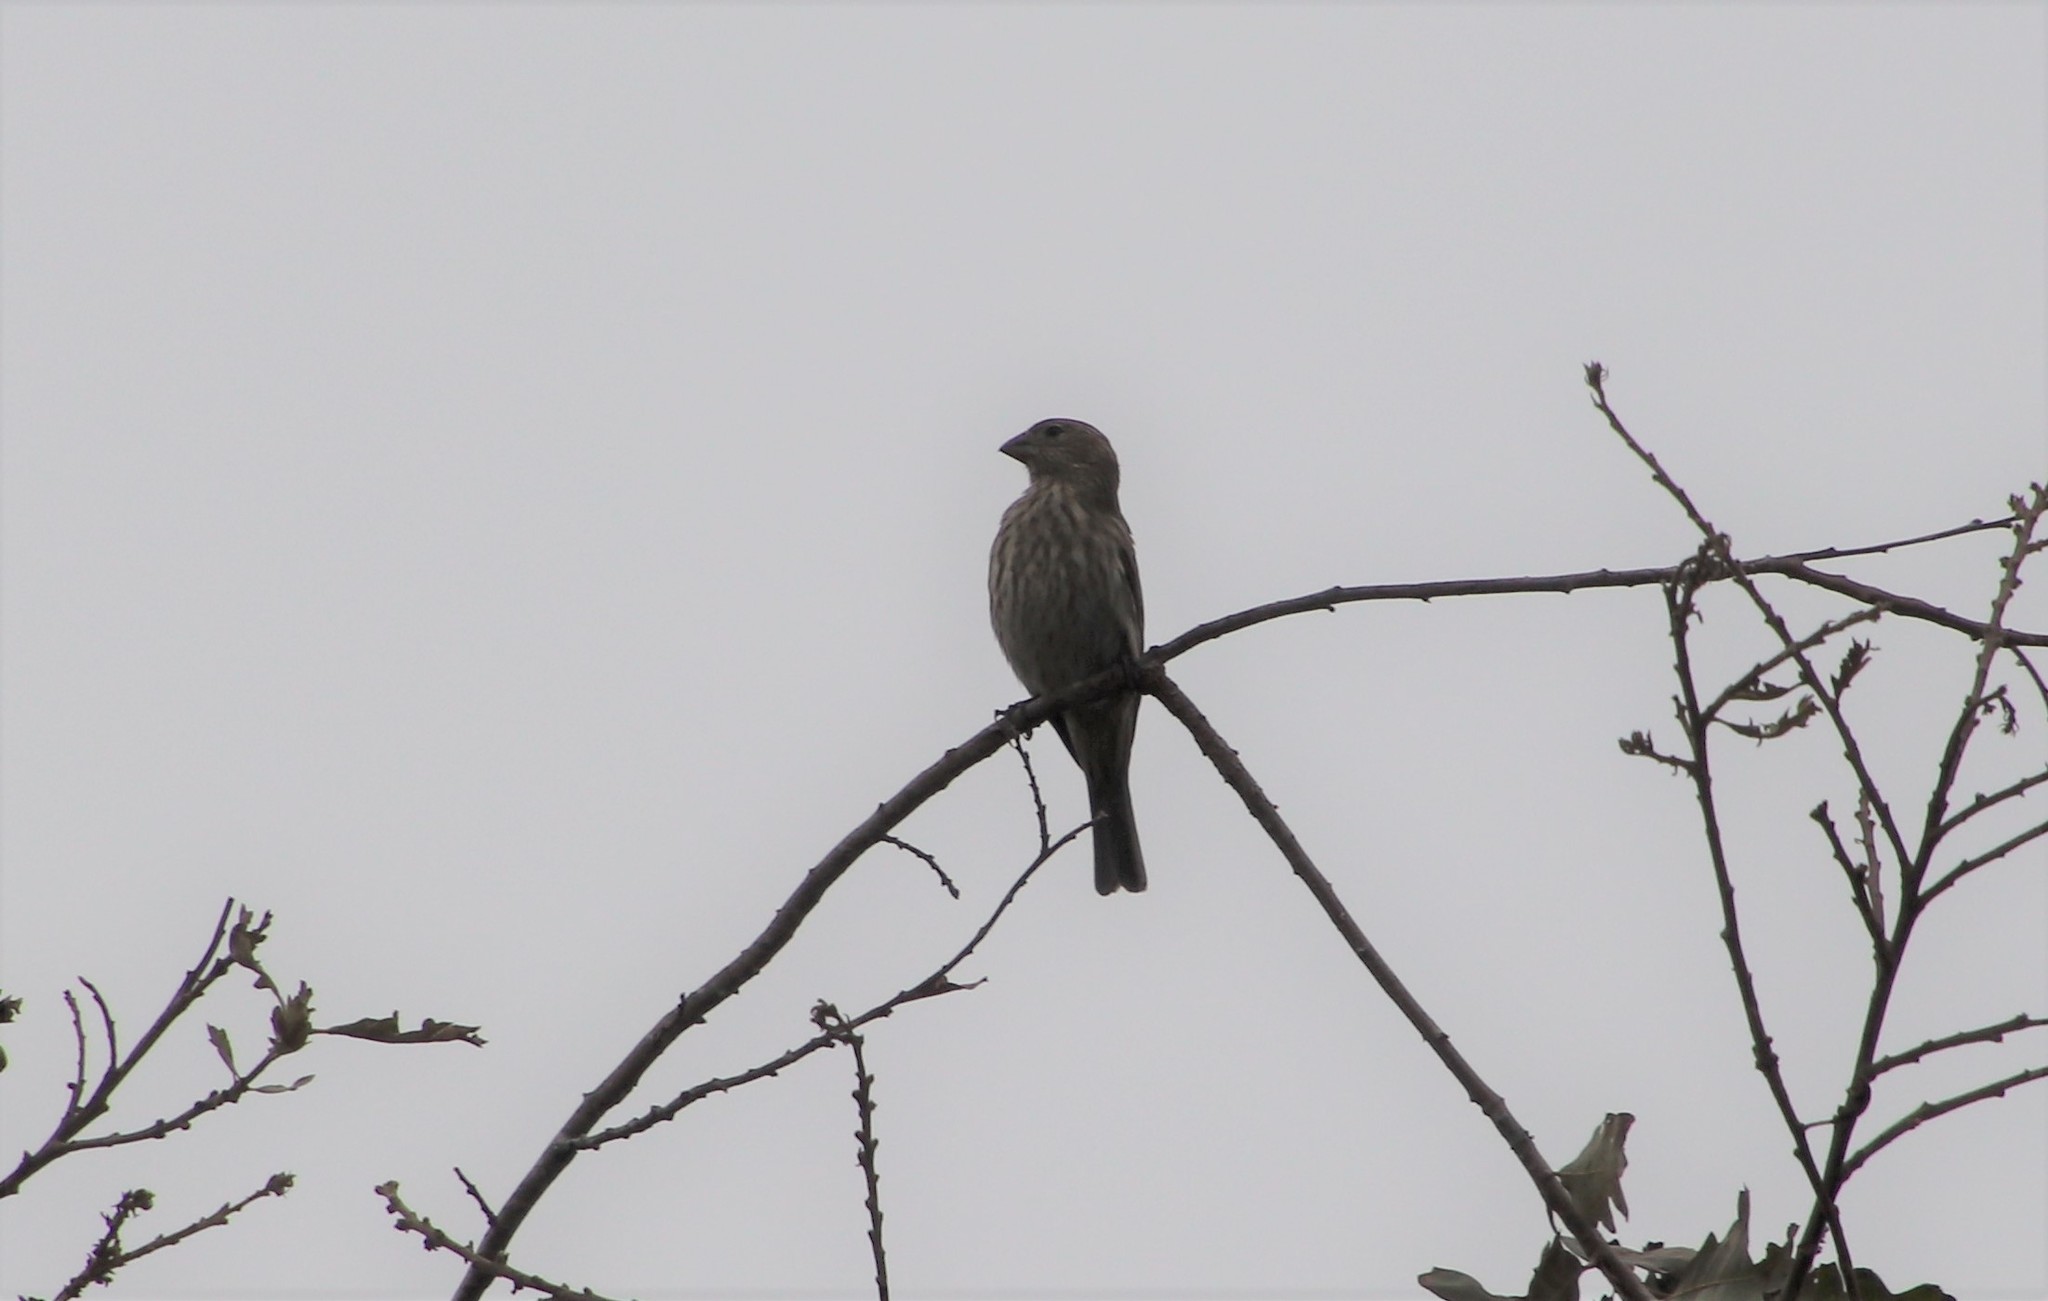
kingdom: Animalia
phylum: Chordata
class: Aves
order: Passeriformes
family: Fringillidae
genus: Haemorhous
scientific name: Haemorhous mexicanus
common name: House finch
